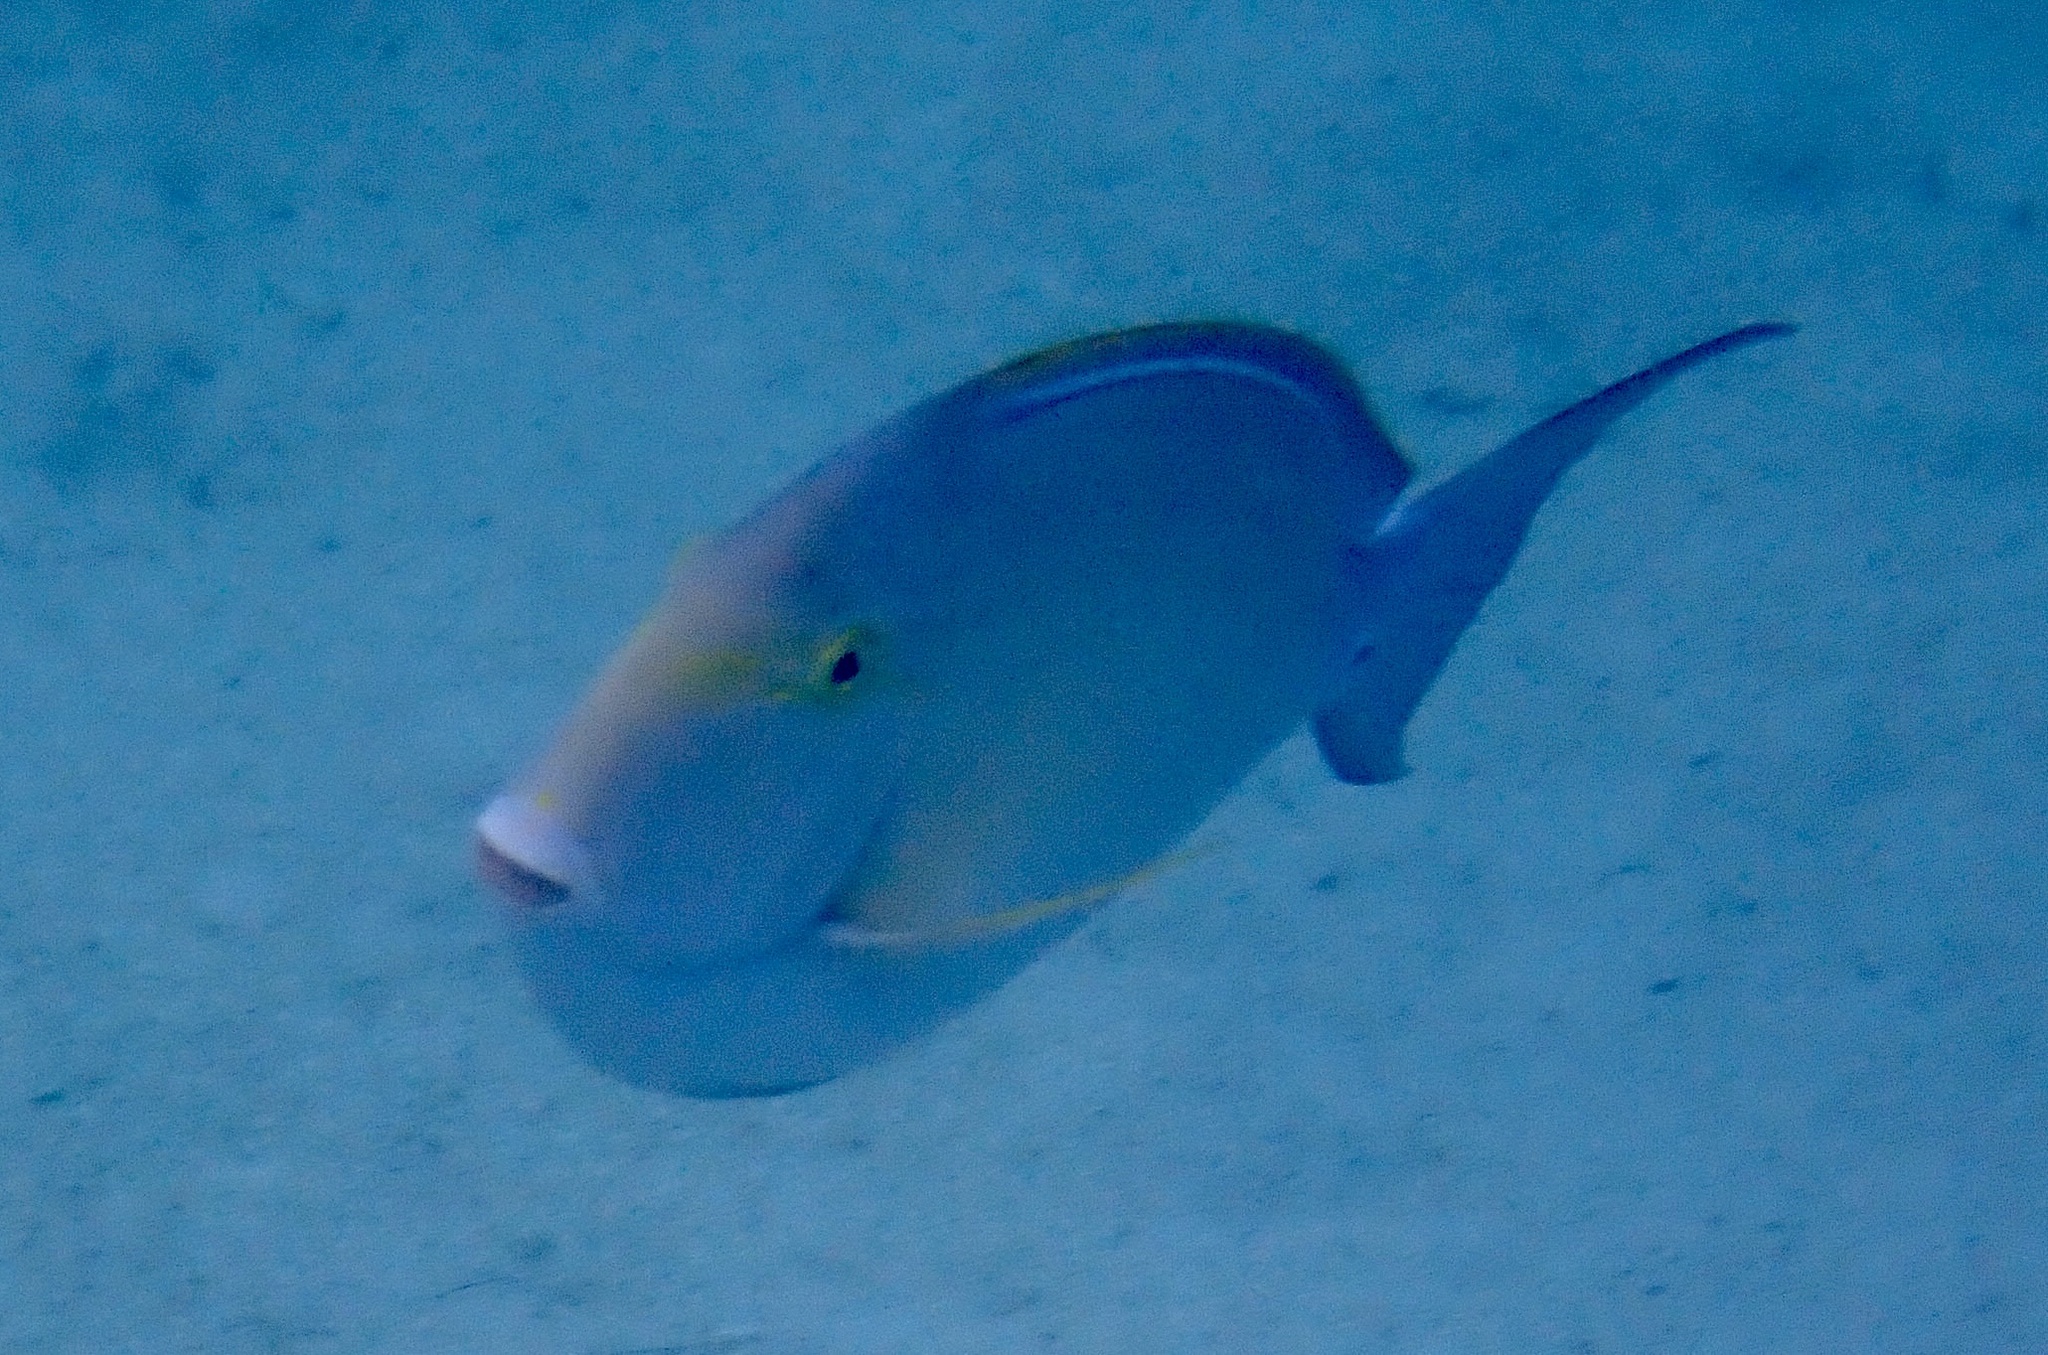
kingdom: Animalia
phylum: Chordata
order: Perciformes
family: Acanthuridae
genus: Acanthurus
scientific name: Acanthurus xanthopterus
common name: Cuvier's surgeonfish
